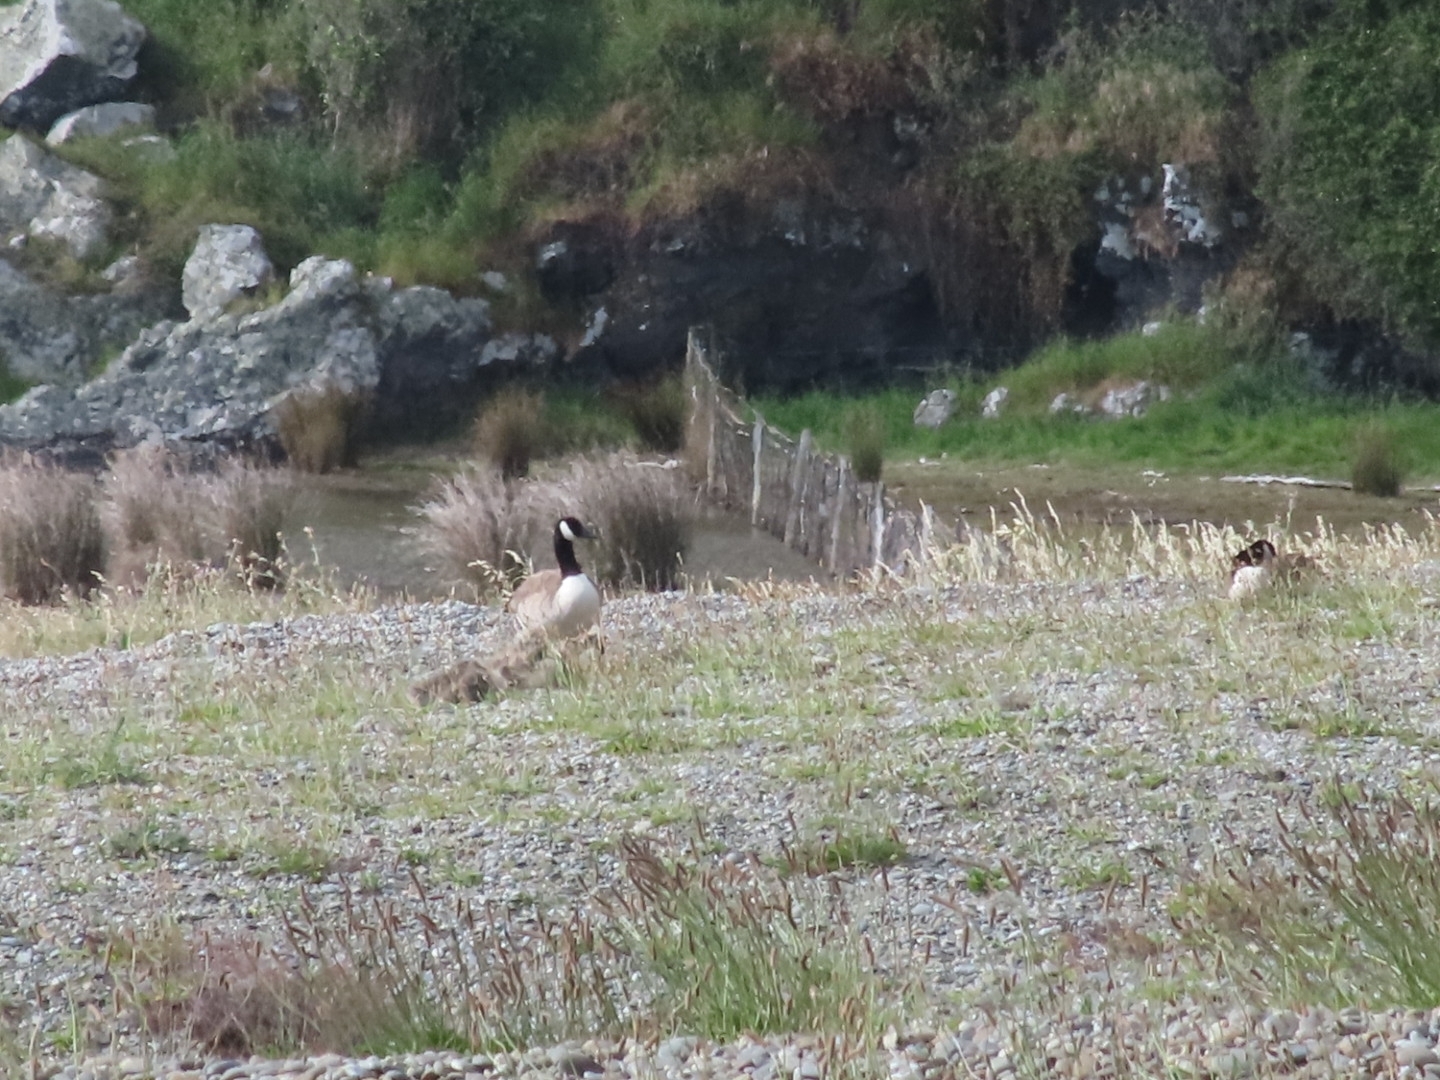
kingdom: Animalia
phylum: Chordata
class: Aves
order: Anseriformes
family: Anatidae
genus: Branta
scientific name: Branta canadensis
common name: Canada goose
